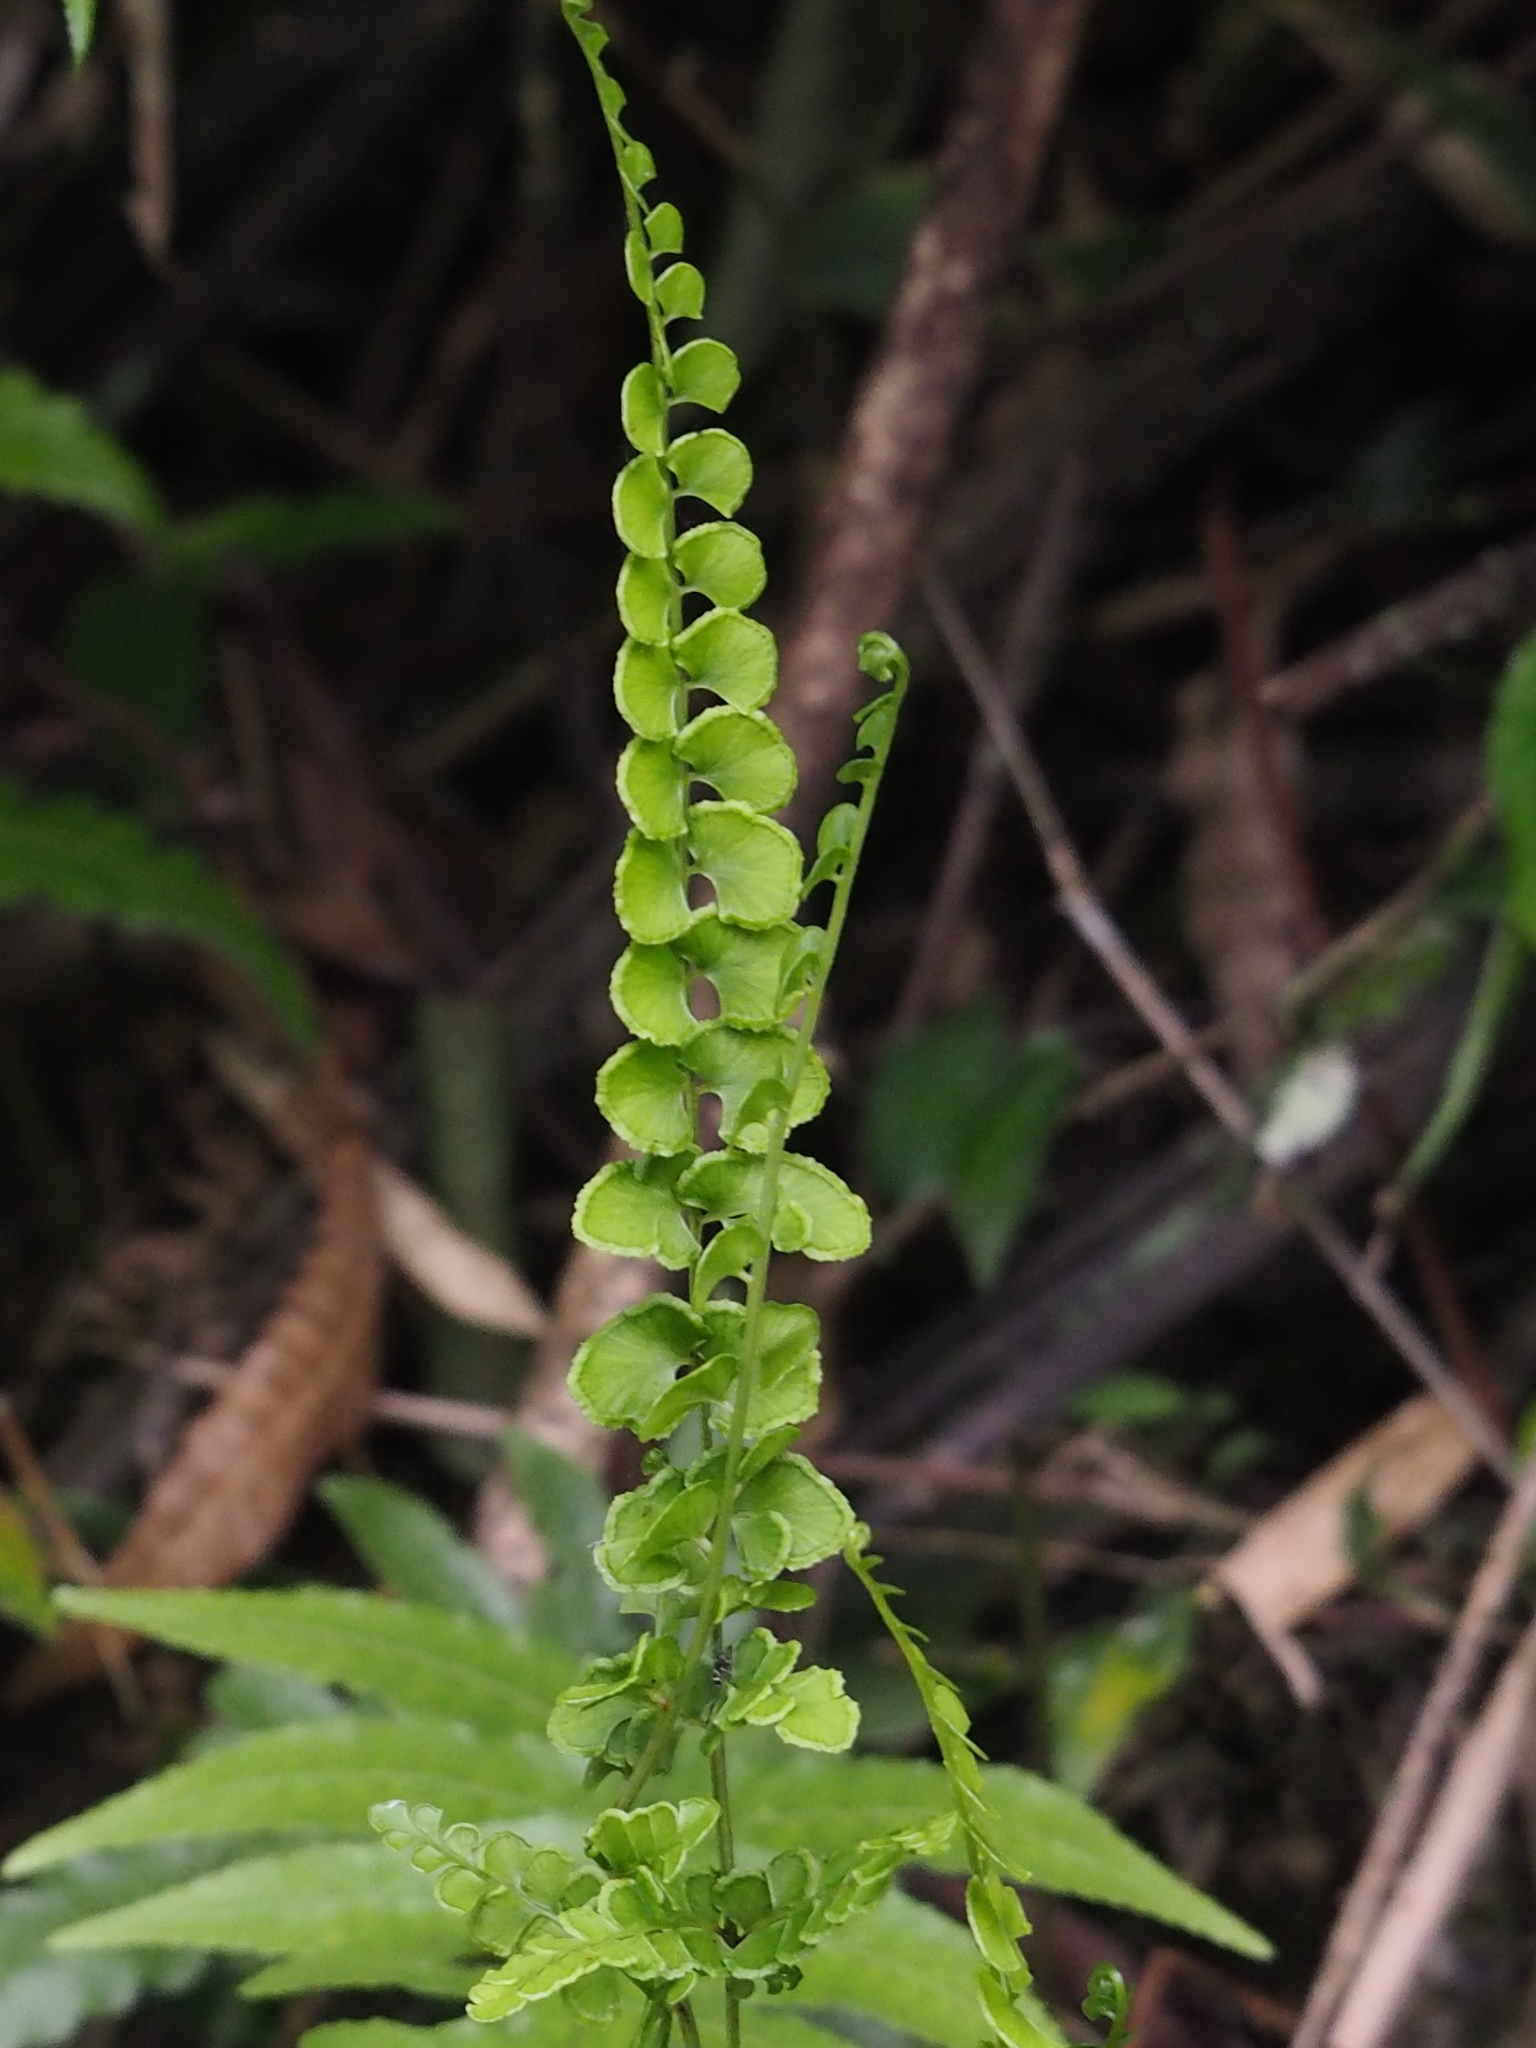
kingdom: Plantae
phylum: Tracheophyta
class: Polypodiopsida
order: Polypodiales
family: Lindsaeaceae
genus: Lindsaea
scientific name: Lindsaea orbiculata
